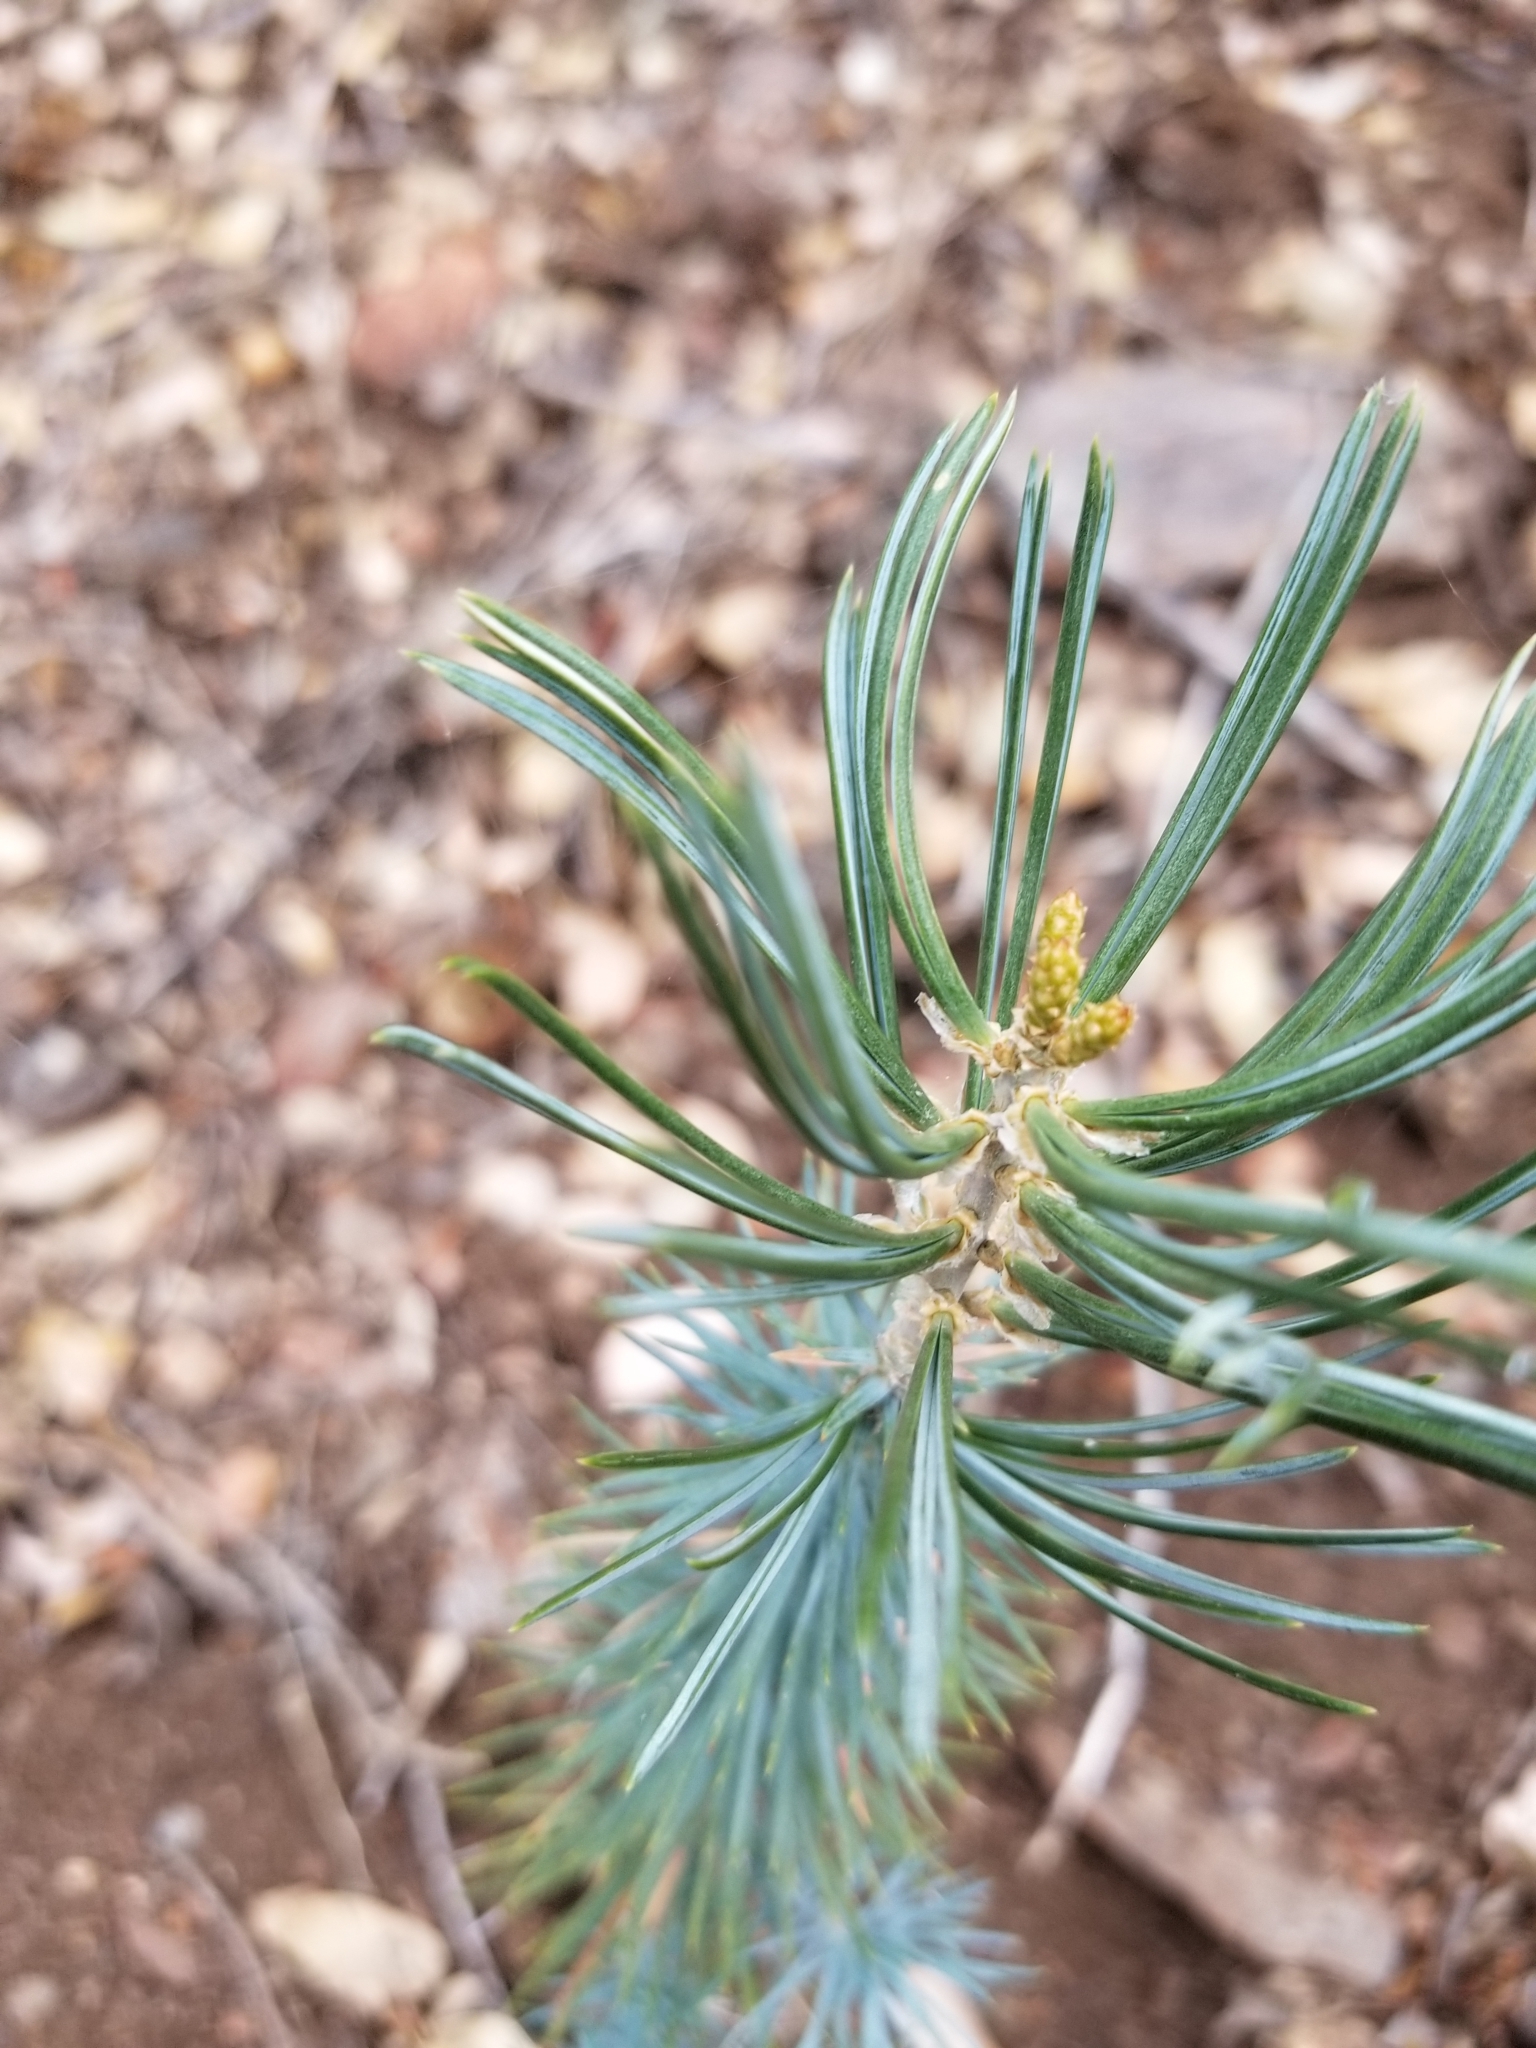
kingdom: Plantae
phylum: Tracheophyta
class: Pinopsida
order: Pinales
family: Pinaceae
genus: Pinus
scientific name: Pinus quadrifolia
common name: Parry pinyon
